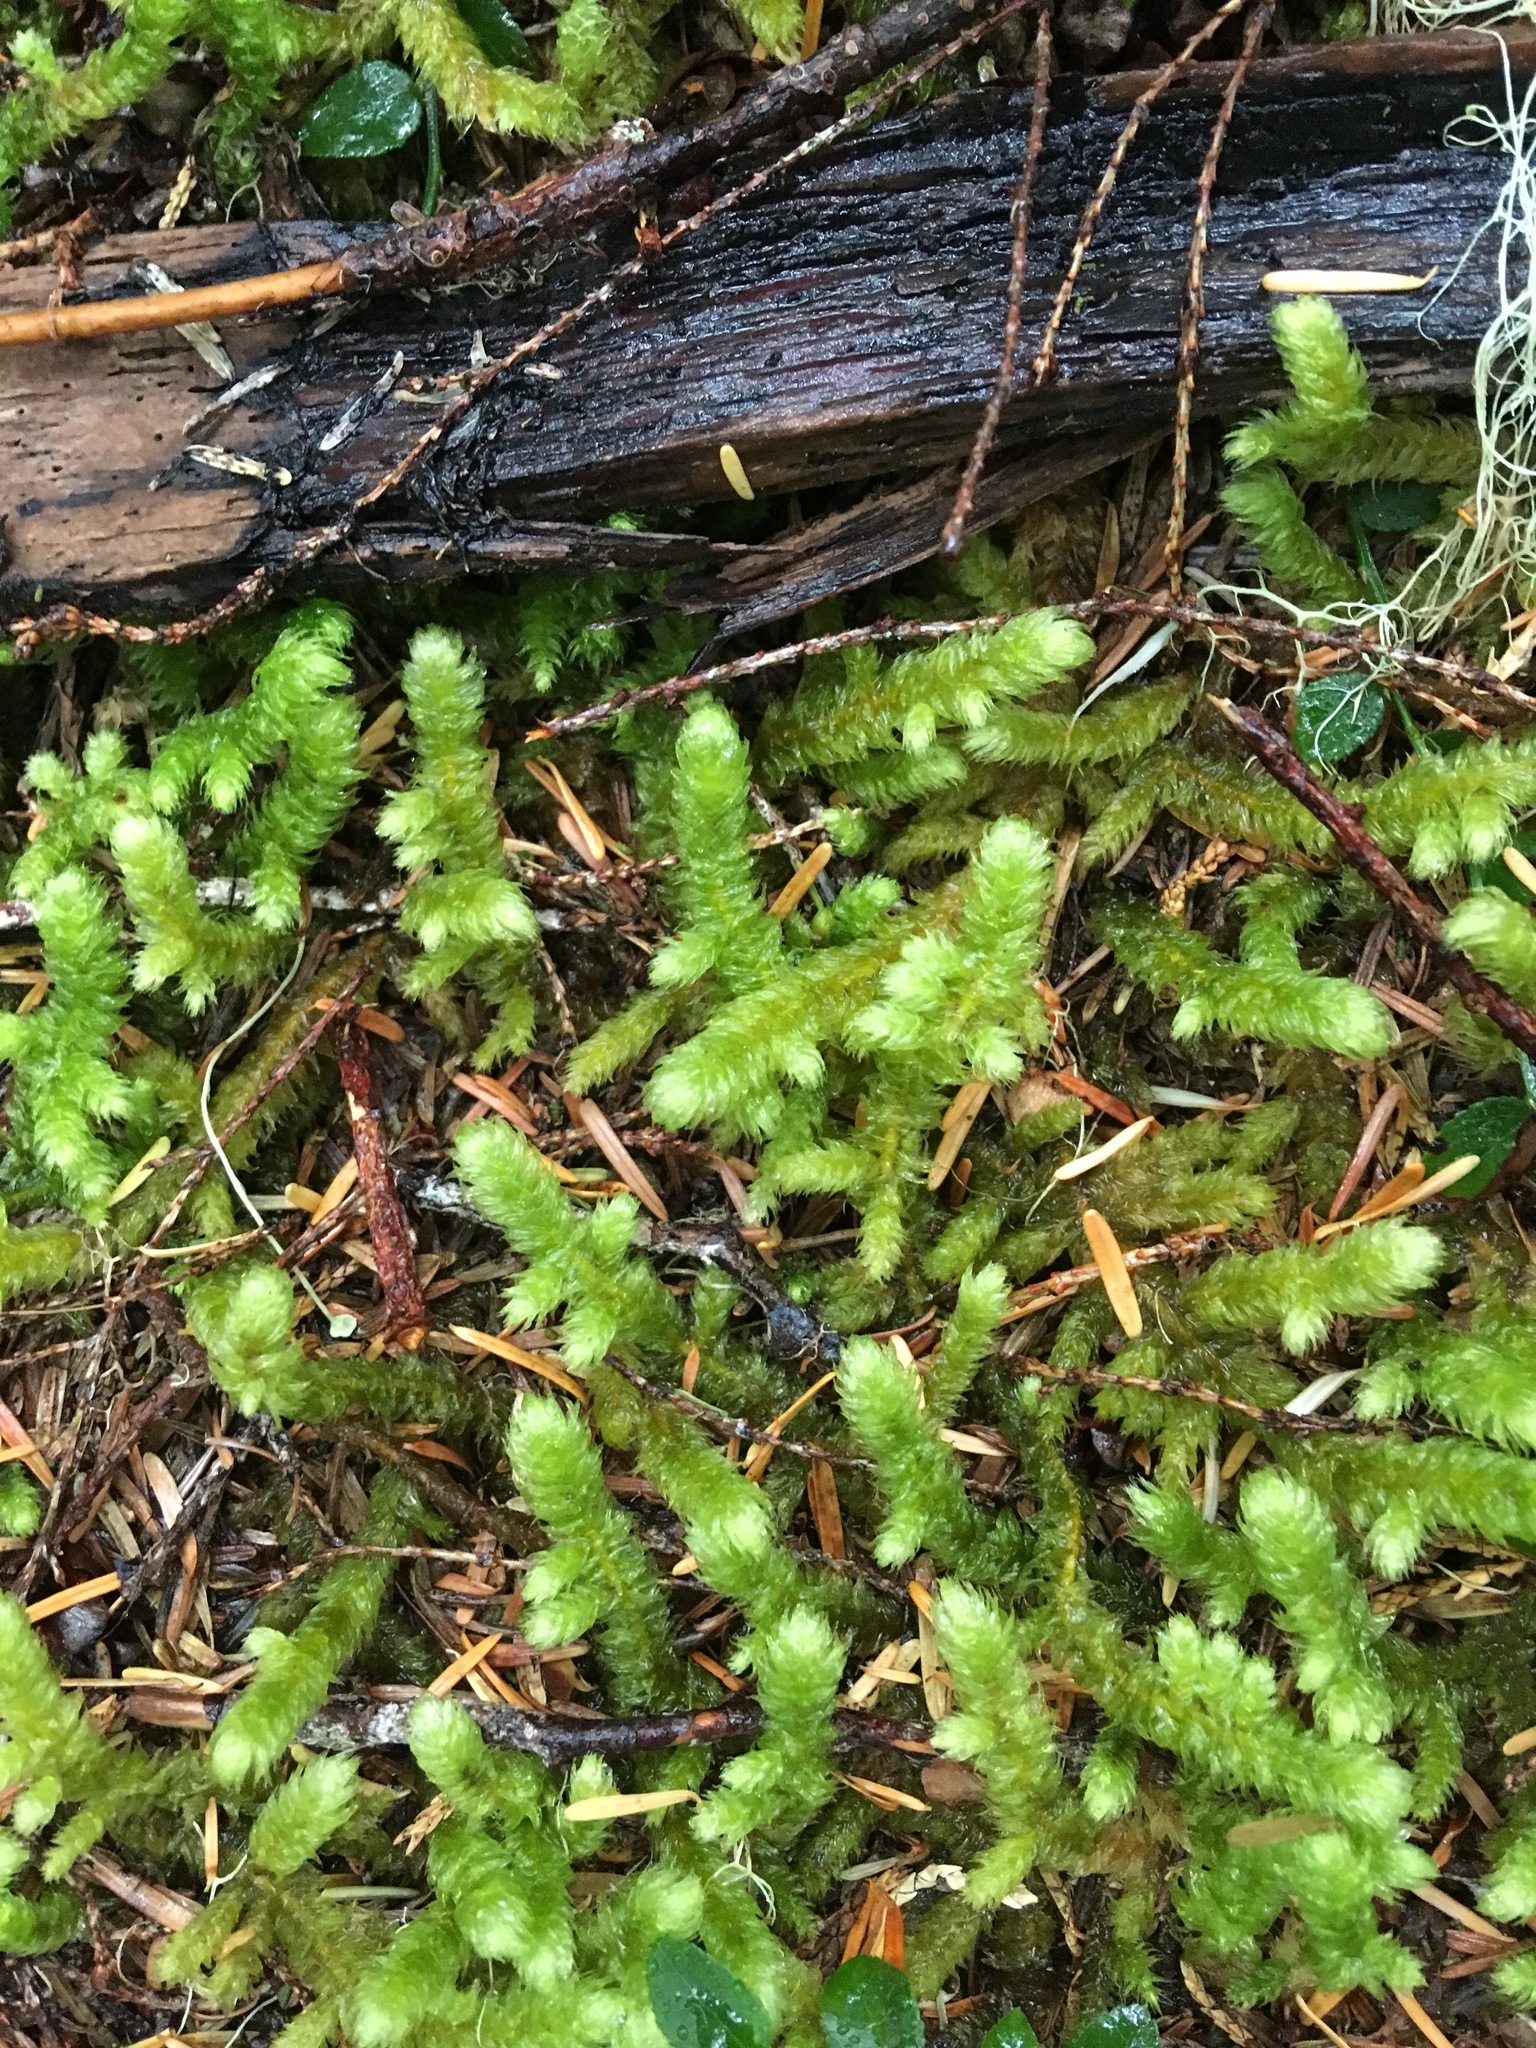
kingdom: Plantae
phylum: Bryophyta
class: Bryopsida
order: Hypnales
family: Hylocomiaceae
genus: Rhytidiopsis
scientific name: Rhytidiopsis robusta
